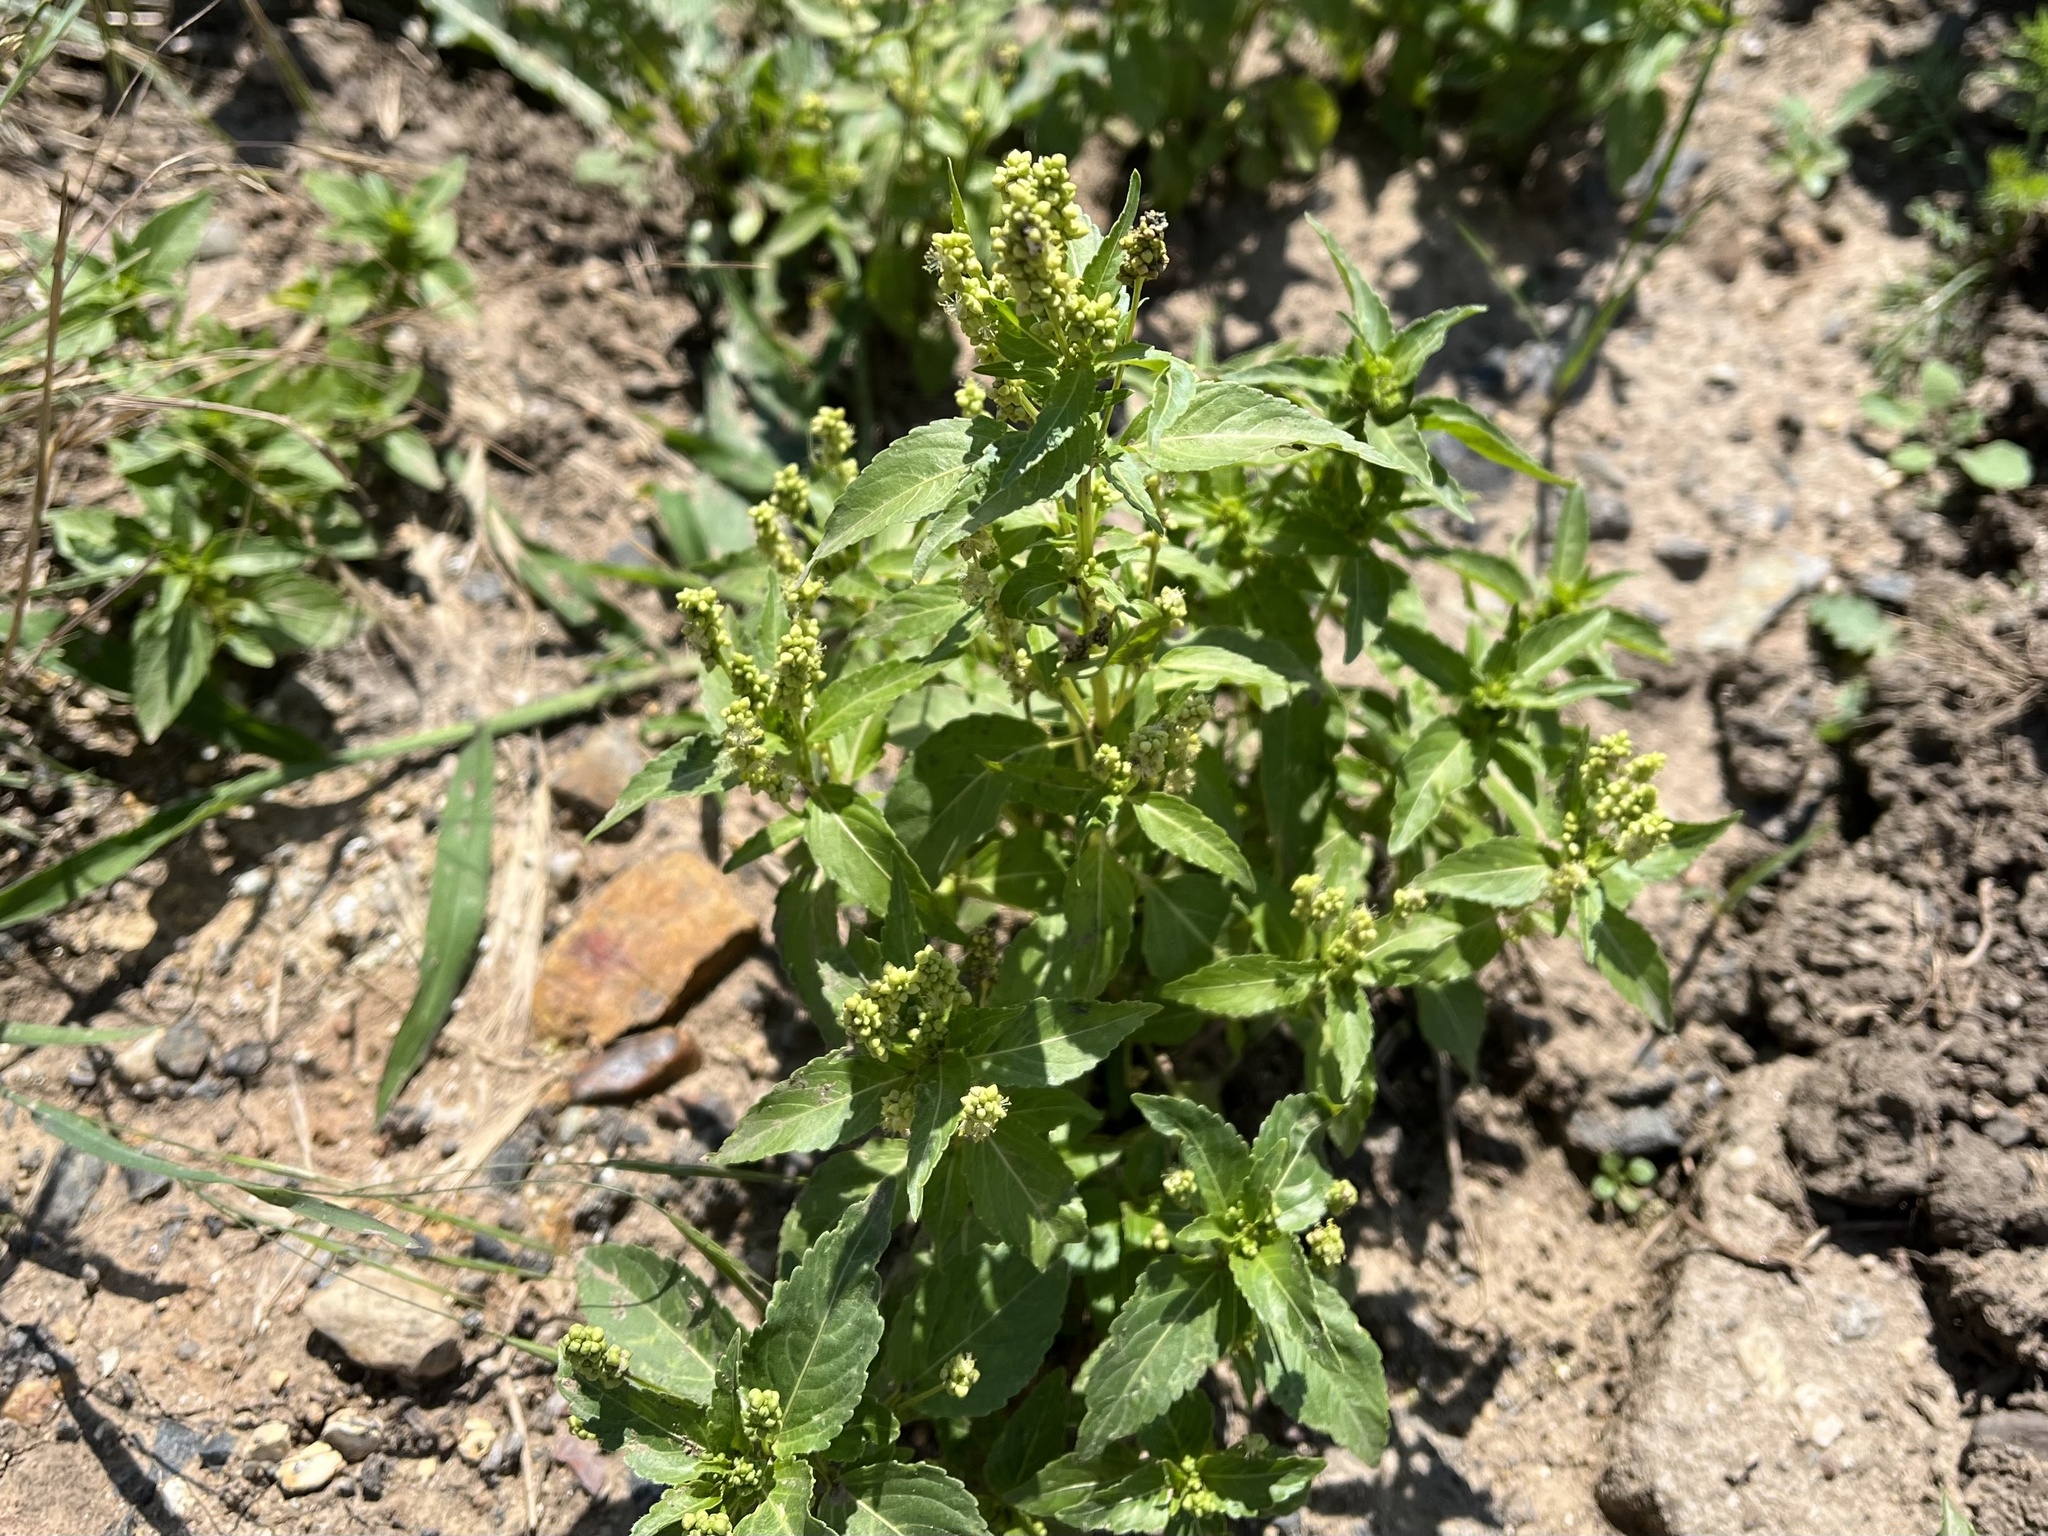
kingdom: Plantae
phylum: Tracheophyta
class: Magnoliopsida
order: Malpighiales
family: Euphorbiaceae
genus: Mercurialis
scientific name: Mercurialis annua
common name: Annual mercury
